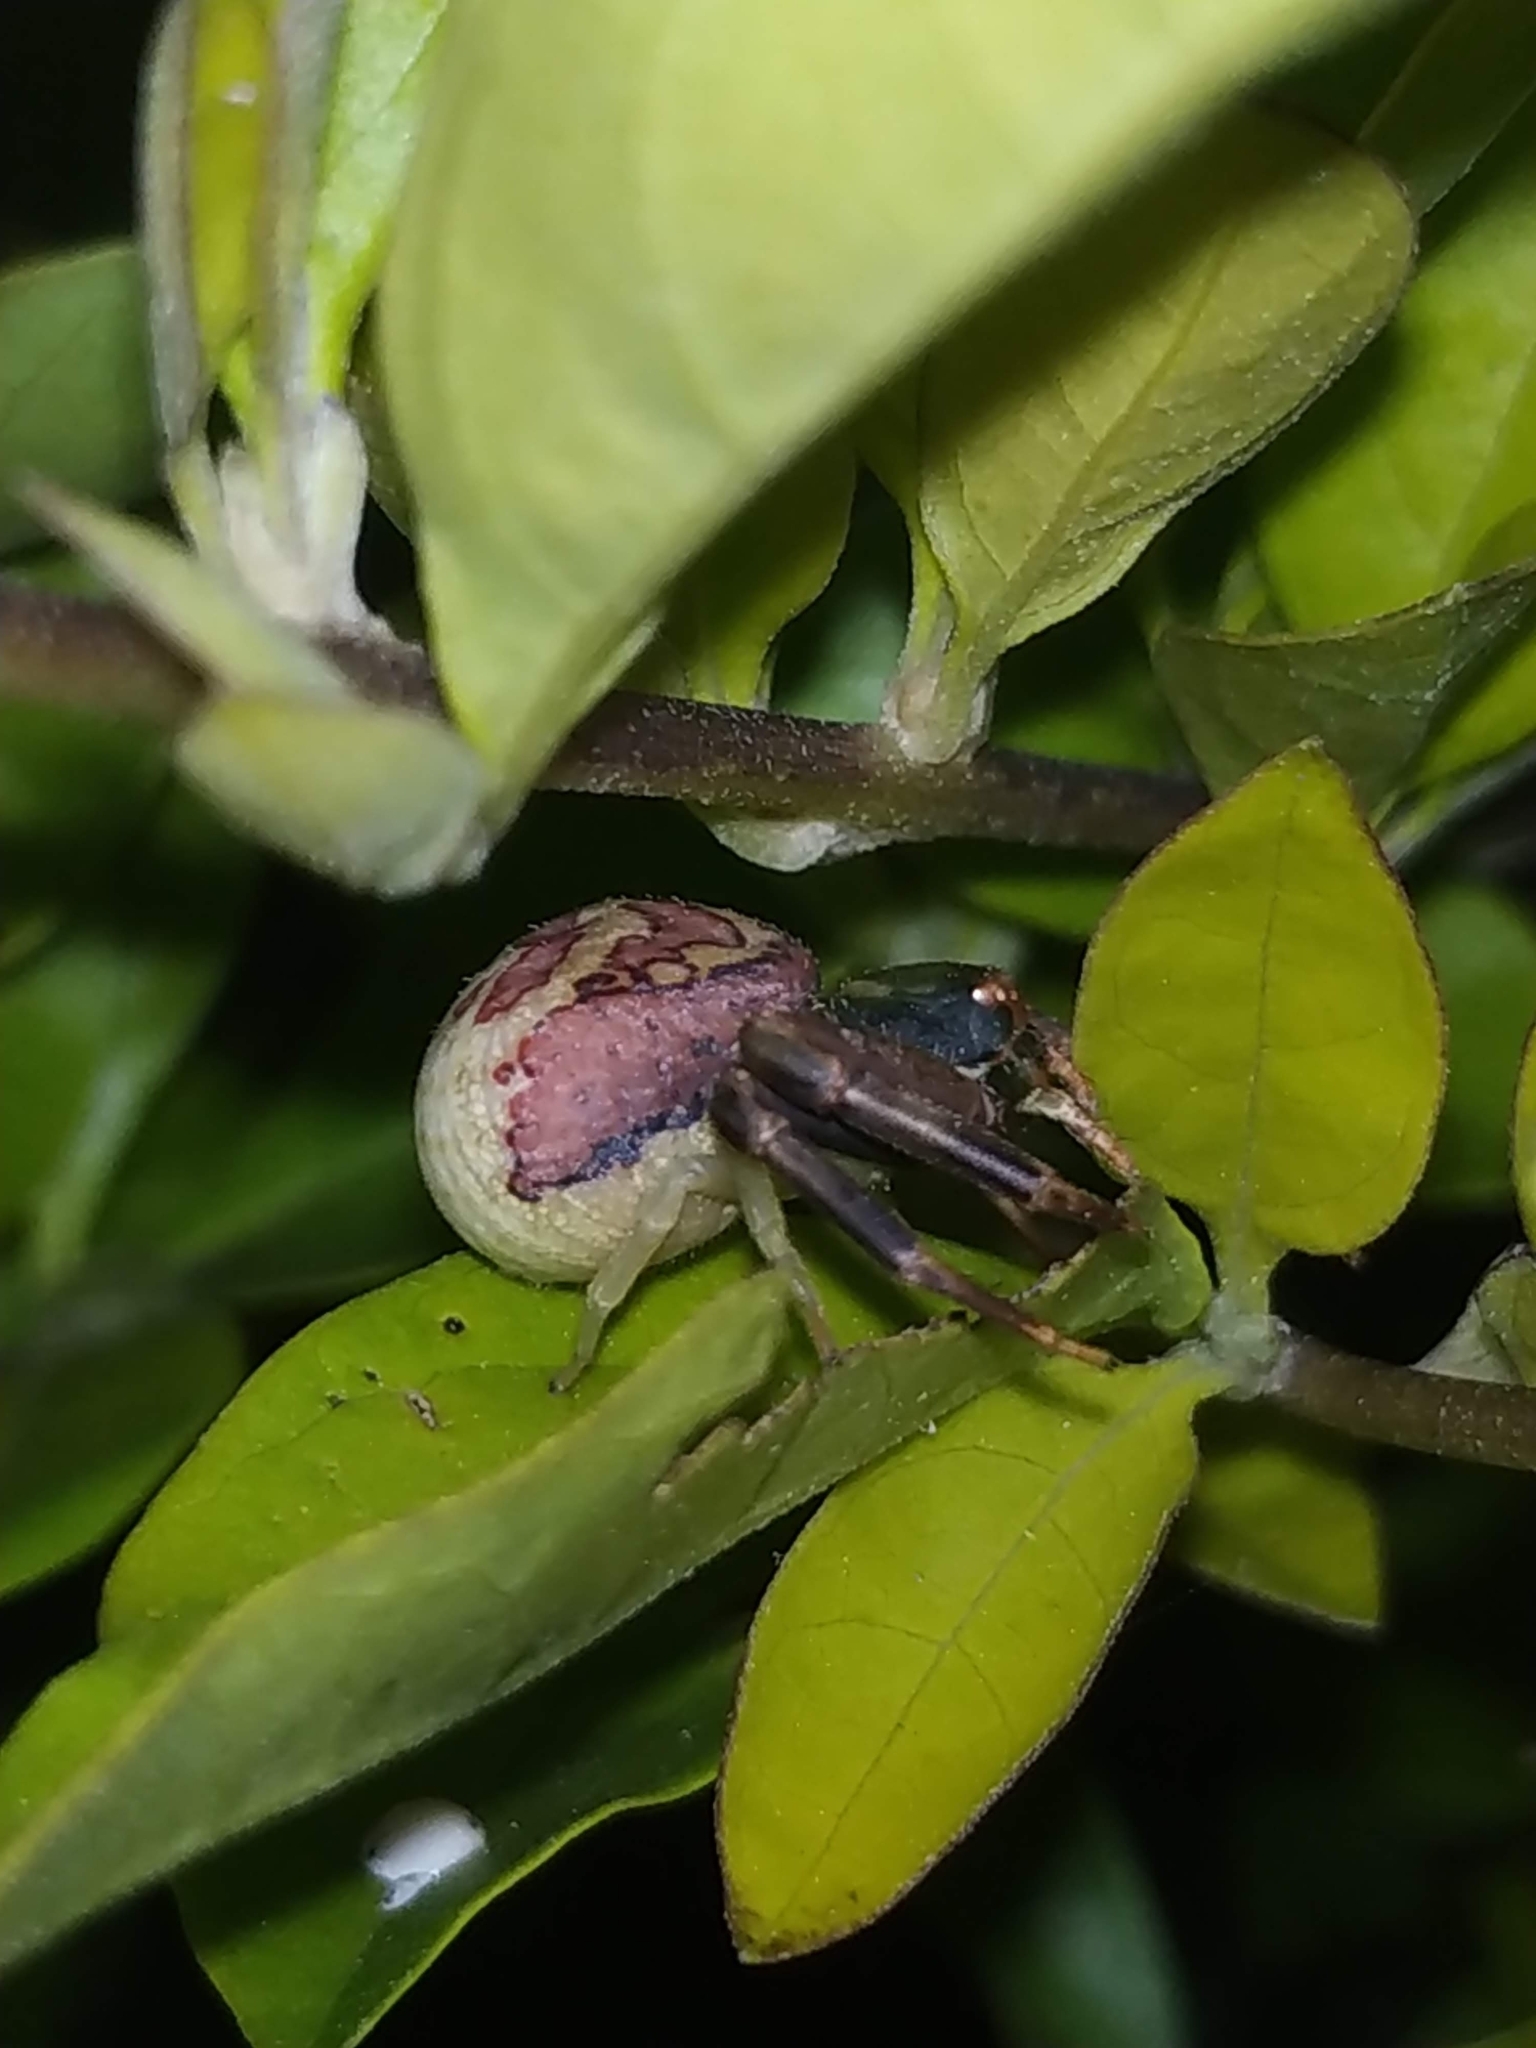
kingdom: Animalia
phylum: Arthropoda
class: Arachnida
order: Araneae
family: Thomisidae
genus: Runcinioides
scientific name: Runcinioides litteratus
